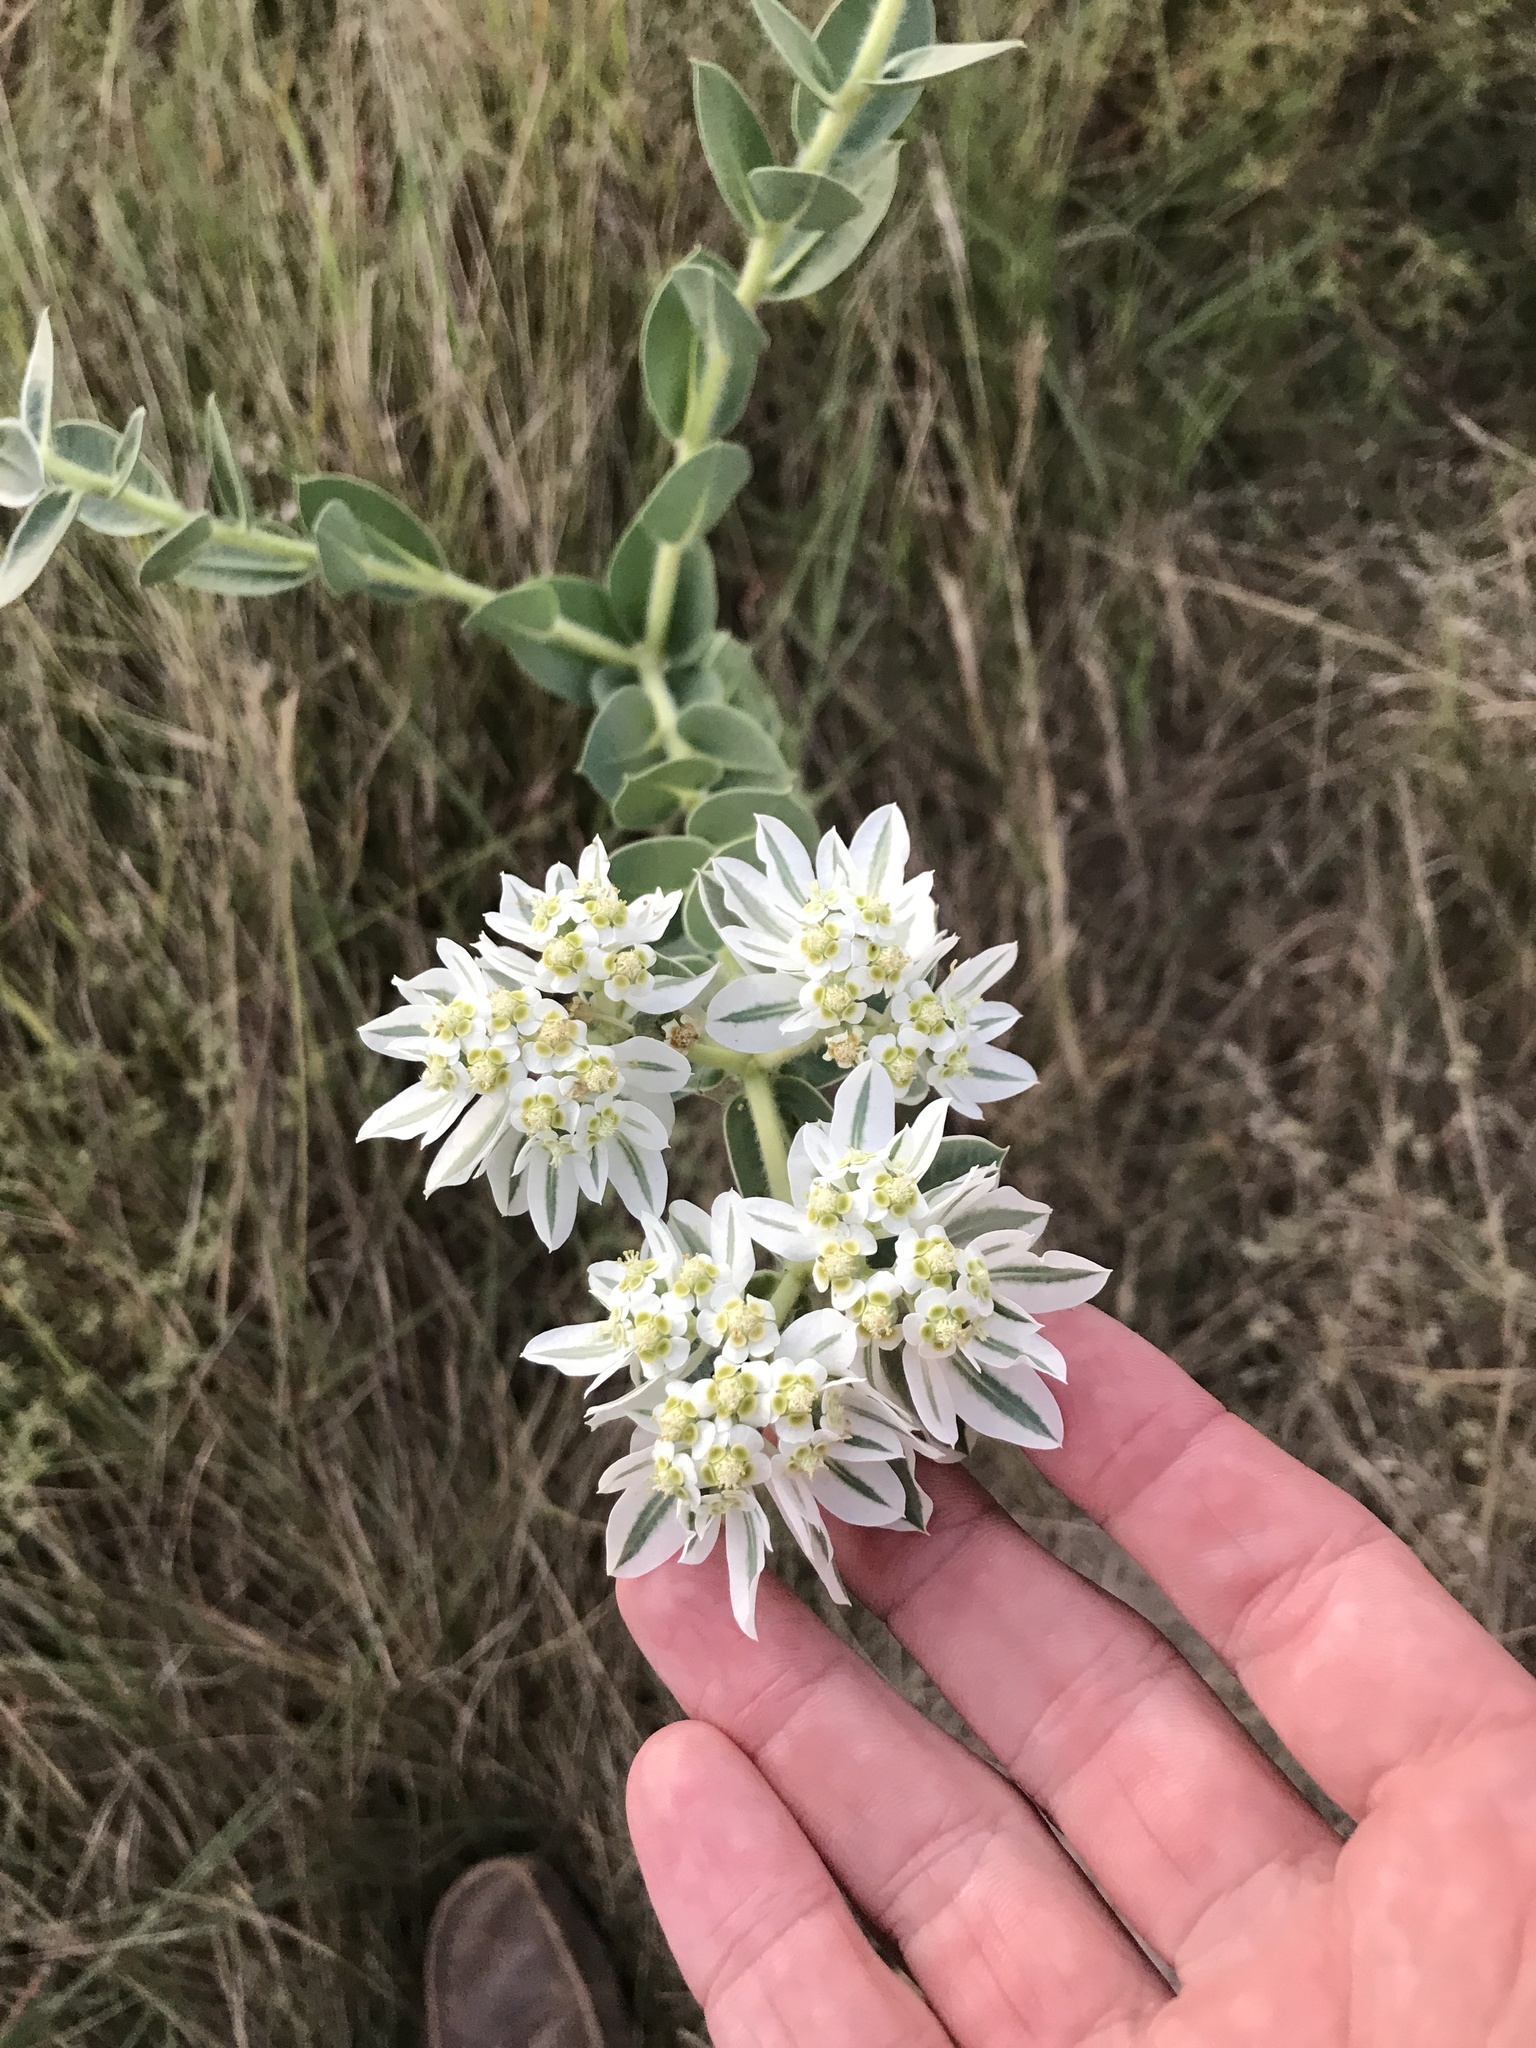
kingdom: Plantae
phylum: Tracheophyta
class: Magnoliopsida
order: Malpighiales
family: Euphorbiaceae
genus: Euphorbia
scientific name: Euphorbia marginata
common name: Ghostweed
